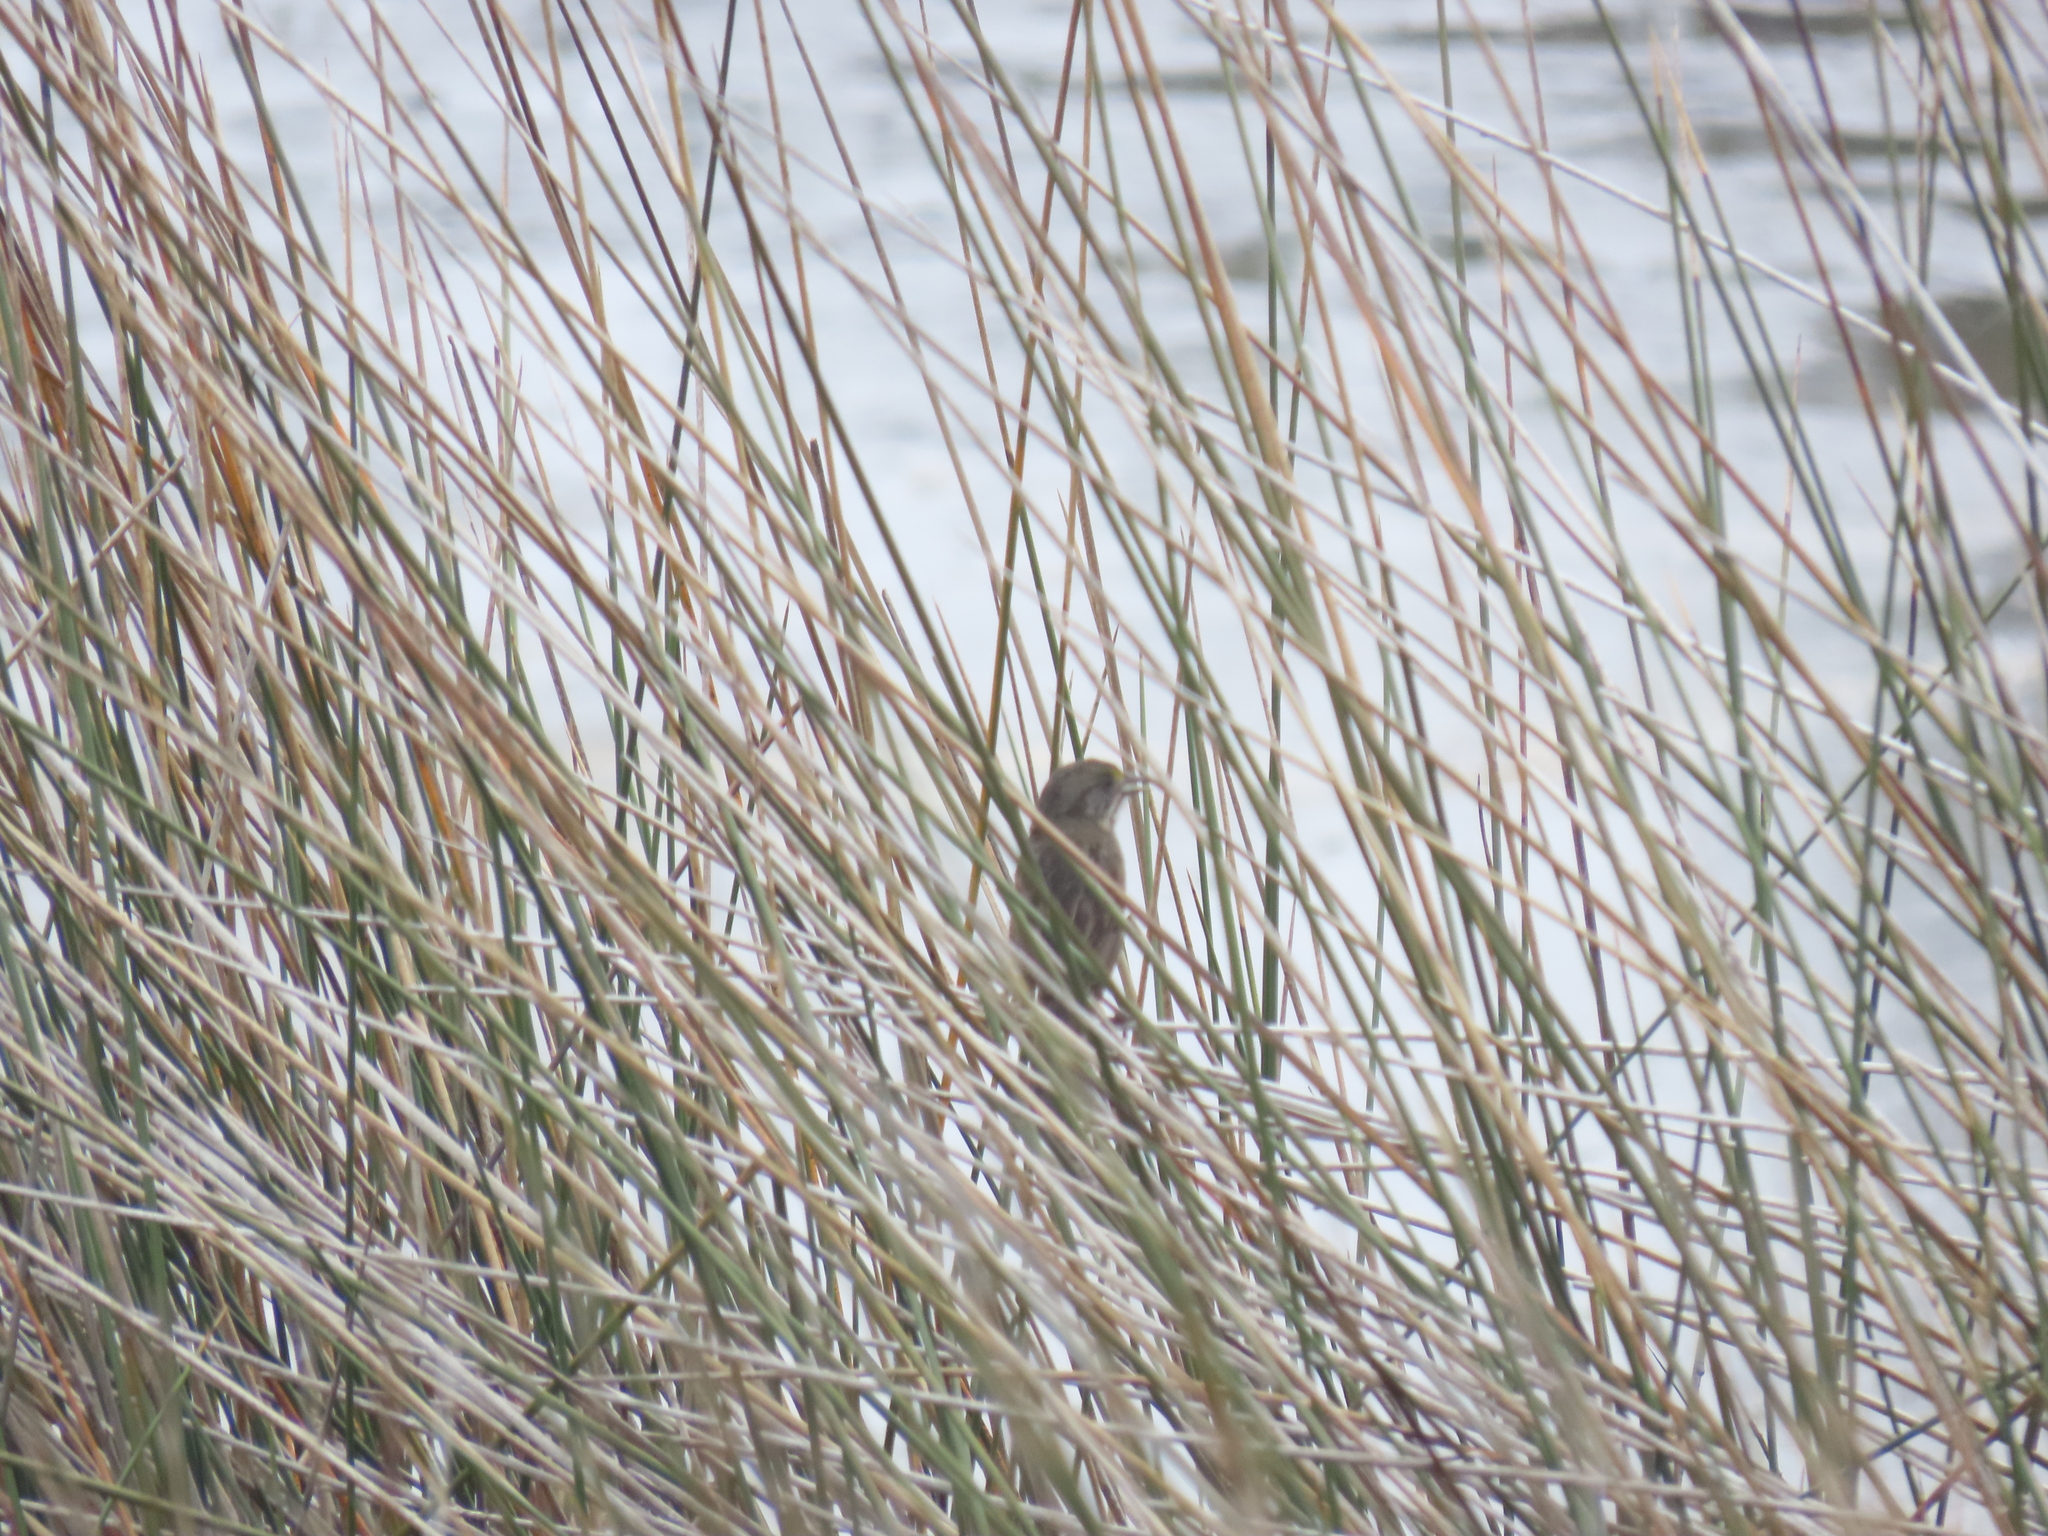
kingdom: Animalia
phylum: Chordata
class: Aves
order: Passeriformes
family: Passerellidae
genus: Ammospiza
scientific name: Ammospiza maritima
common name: Seaside sparrow
